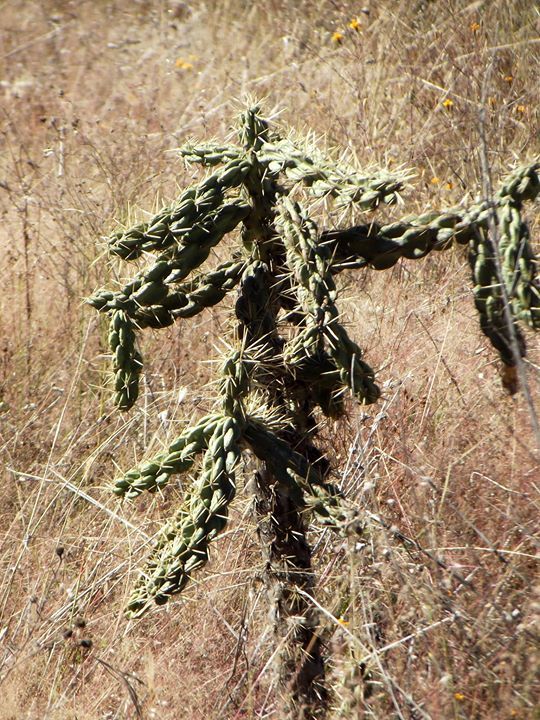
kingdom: Plantae
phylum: Tracheophyta
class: Magnoliopsida
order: Caryophyllales
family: Cactaceae
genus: Cylindropuntia
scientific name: Cylindropuntia imbricata
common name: Candelabrum cactus
